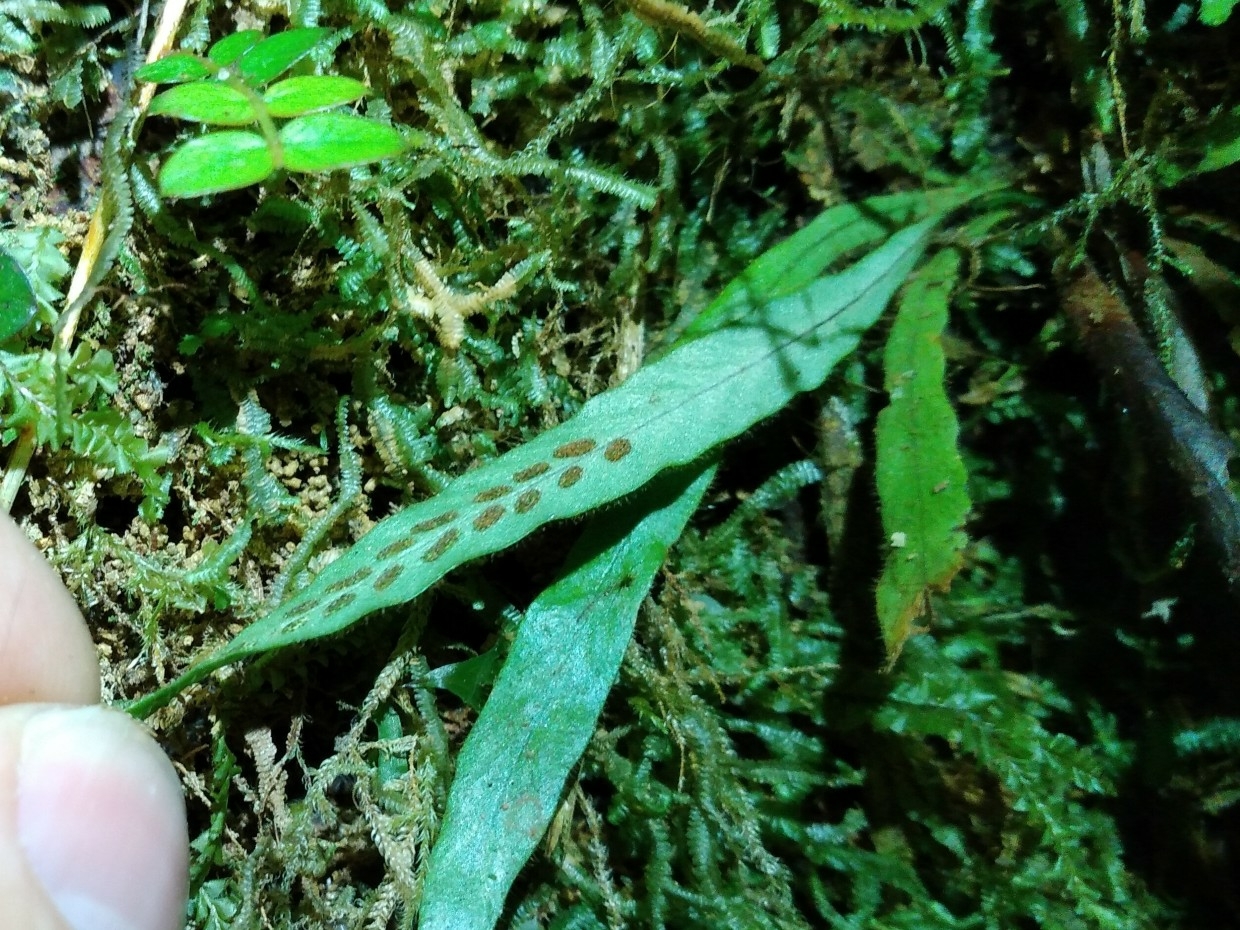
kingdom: Plantae
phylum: Tracheophyta
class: Polypodiopsida
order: Polypodiales
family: Polypodiaceae
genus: Notogrammitis
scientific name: Notogrammitis pseudociliata
